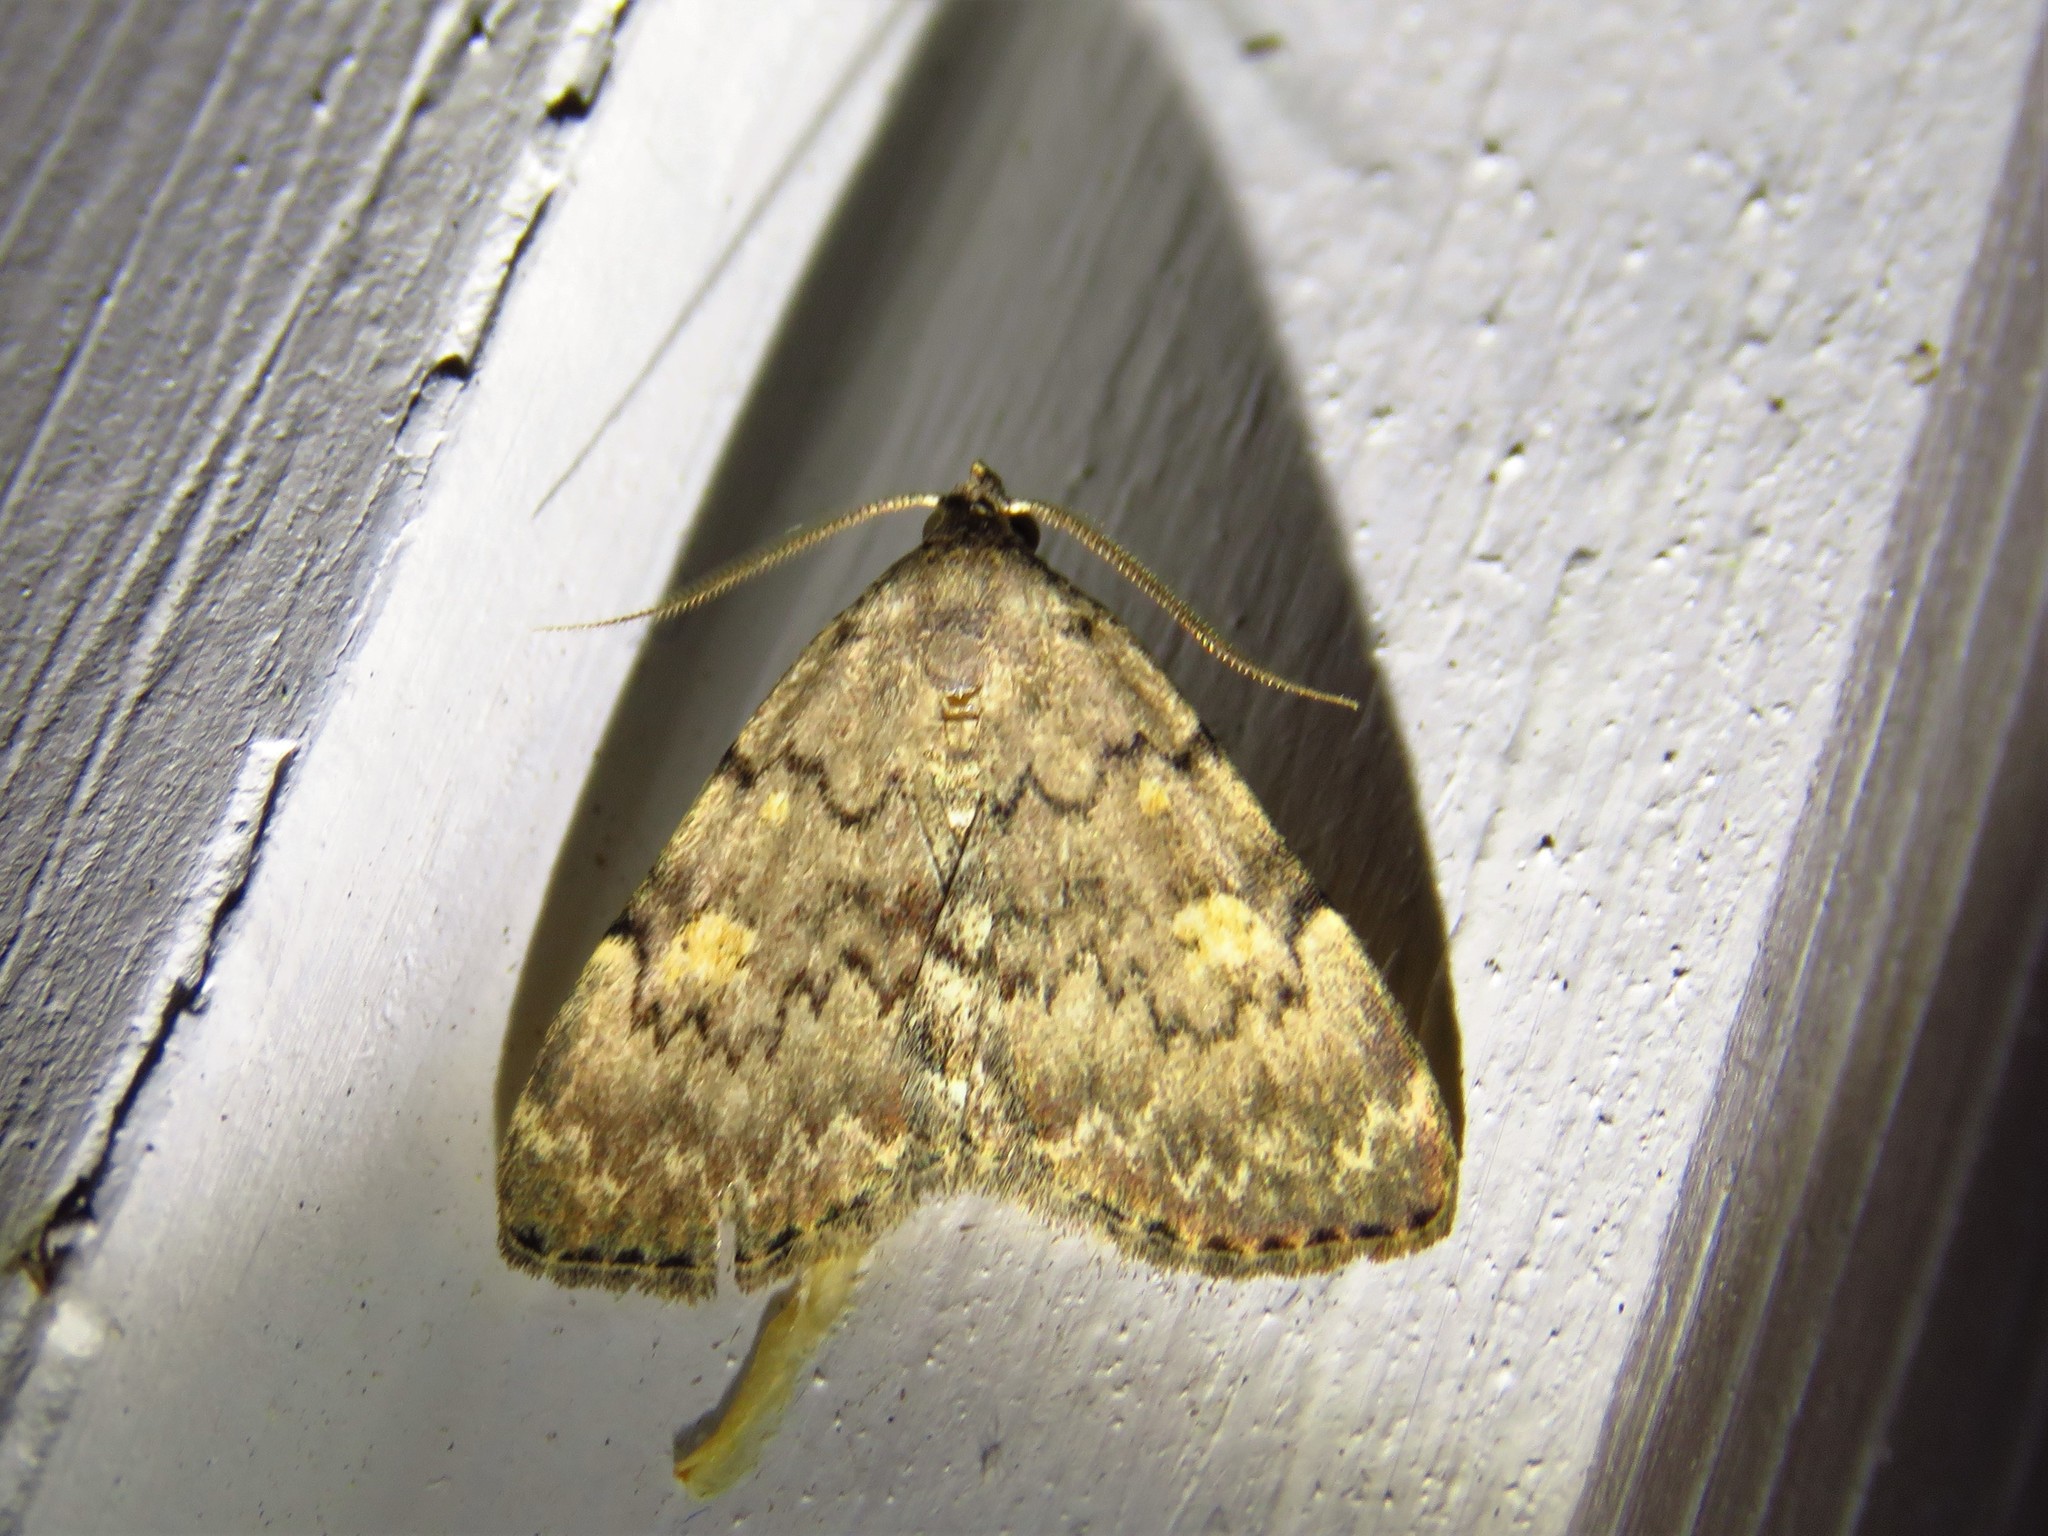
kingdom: Animalia
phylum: Arthropoda
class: Insecta
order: Lepidoptera
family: Erebidae
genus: Idia
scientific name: Idia aemula
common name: Common idia moth
